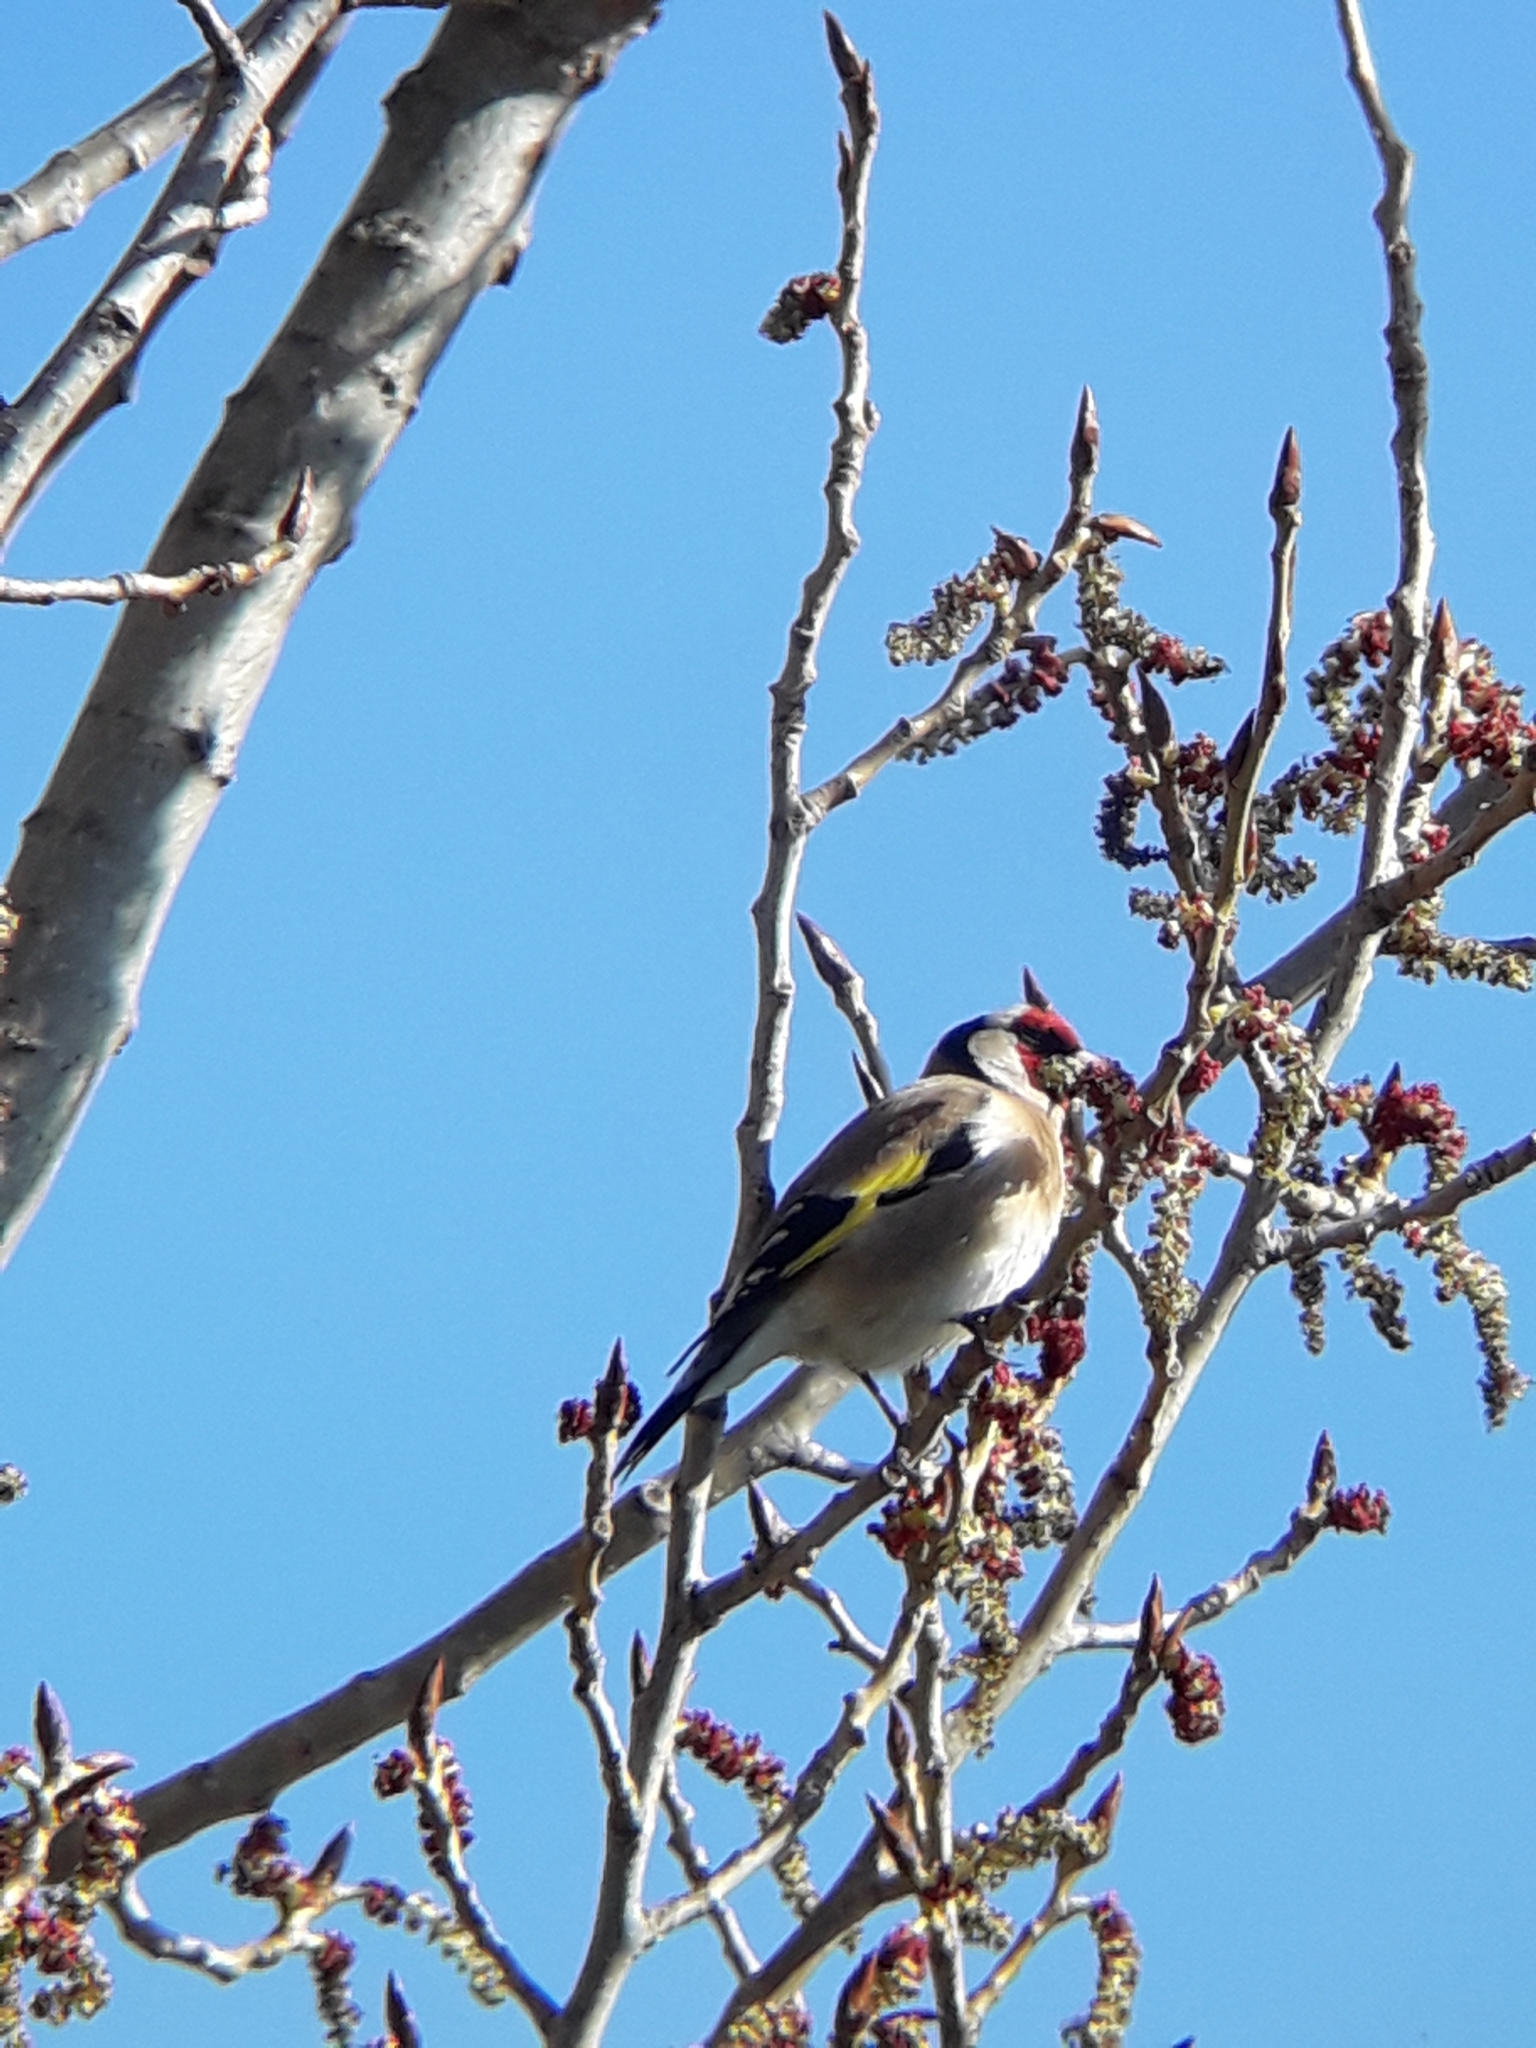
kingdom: Animalia
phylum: Chordata
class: Aves
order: Passeriformes
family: Fringillidae
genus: Carduelis
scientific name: Carduelis carduelis
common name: European goldfinch
